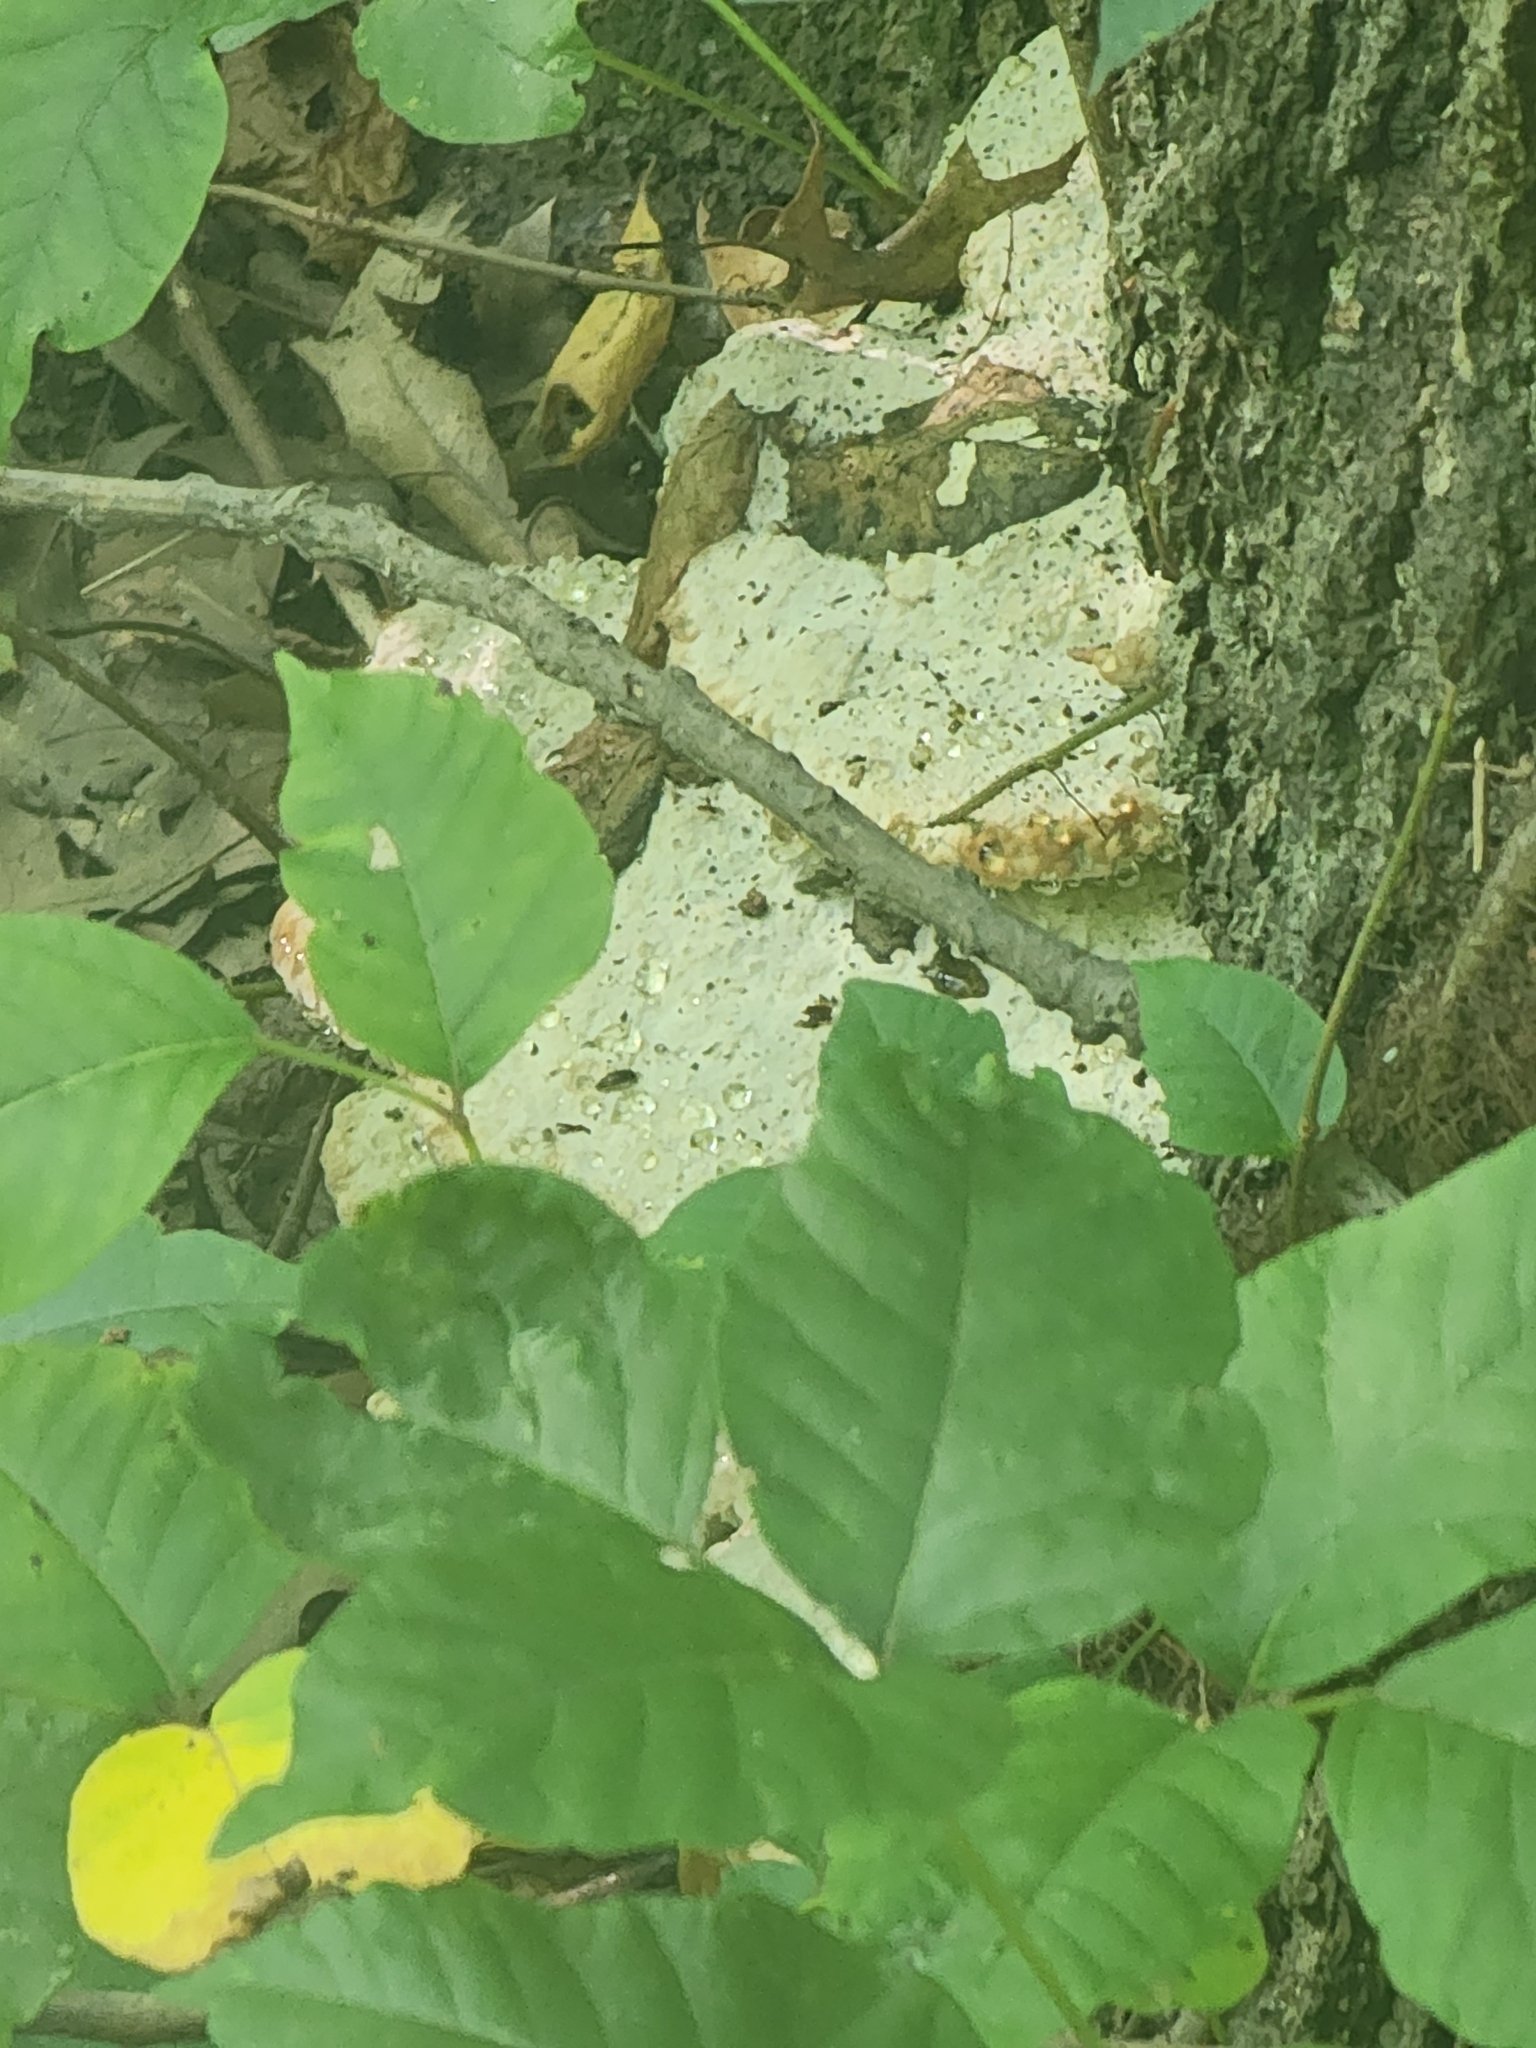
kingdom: Fungi
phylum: Basidiomycota
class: Agaricomycetes
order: Polyporales
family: Fomitopsidaceae
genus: Niveoporofomes
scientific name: Niveoporofomes spraguei
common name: Green cheese polypore
